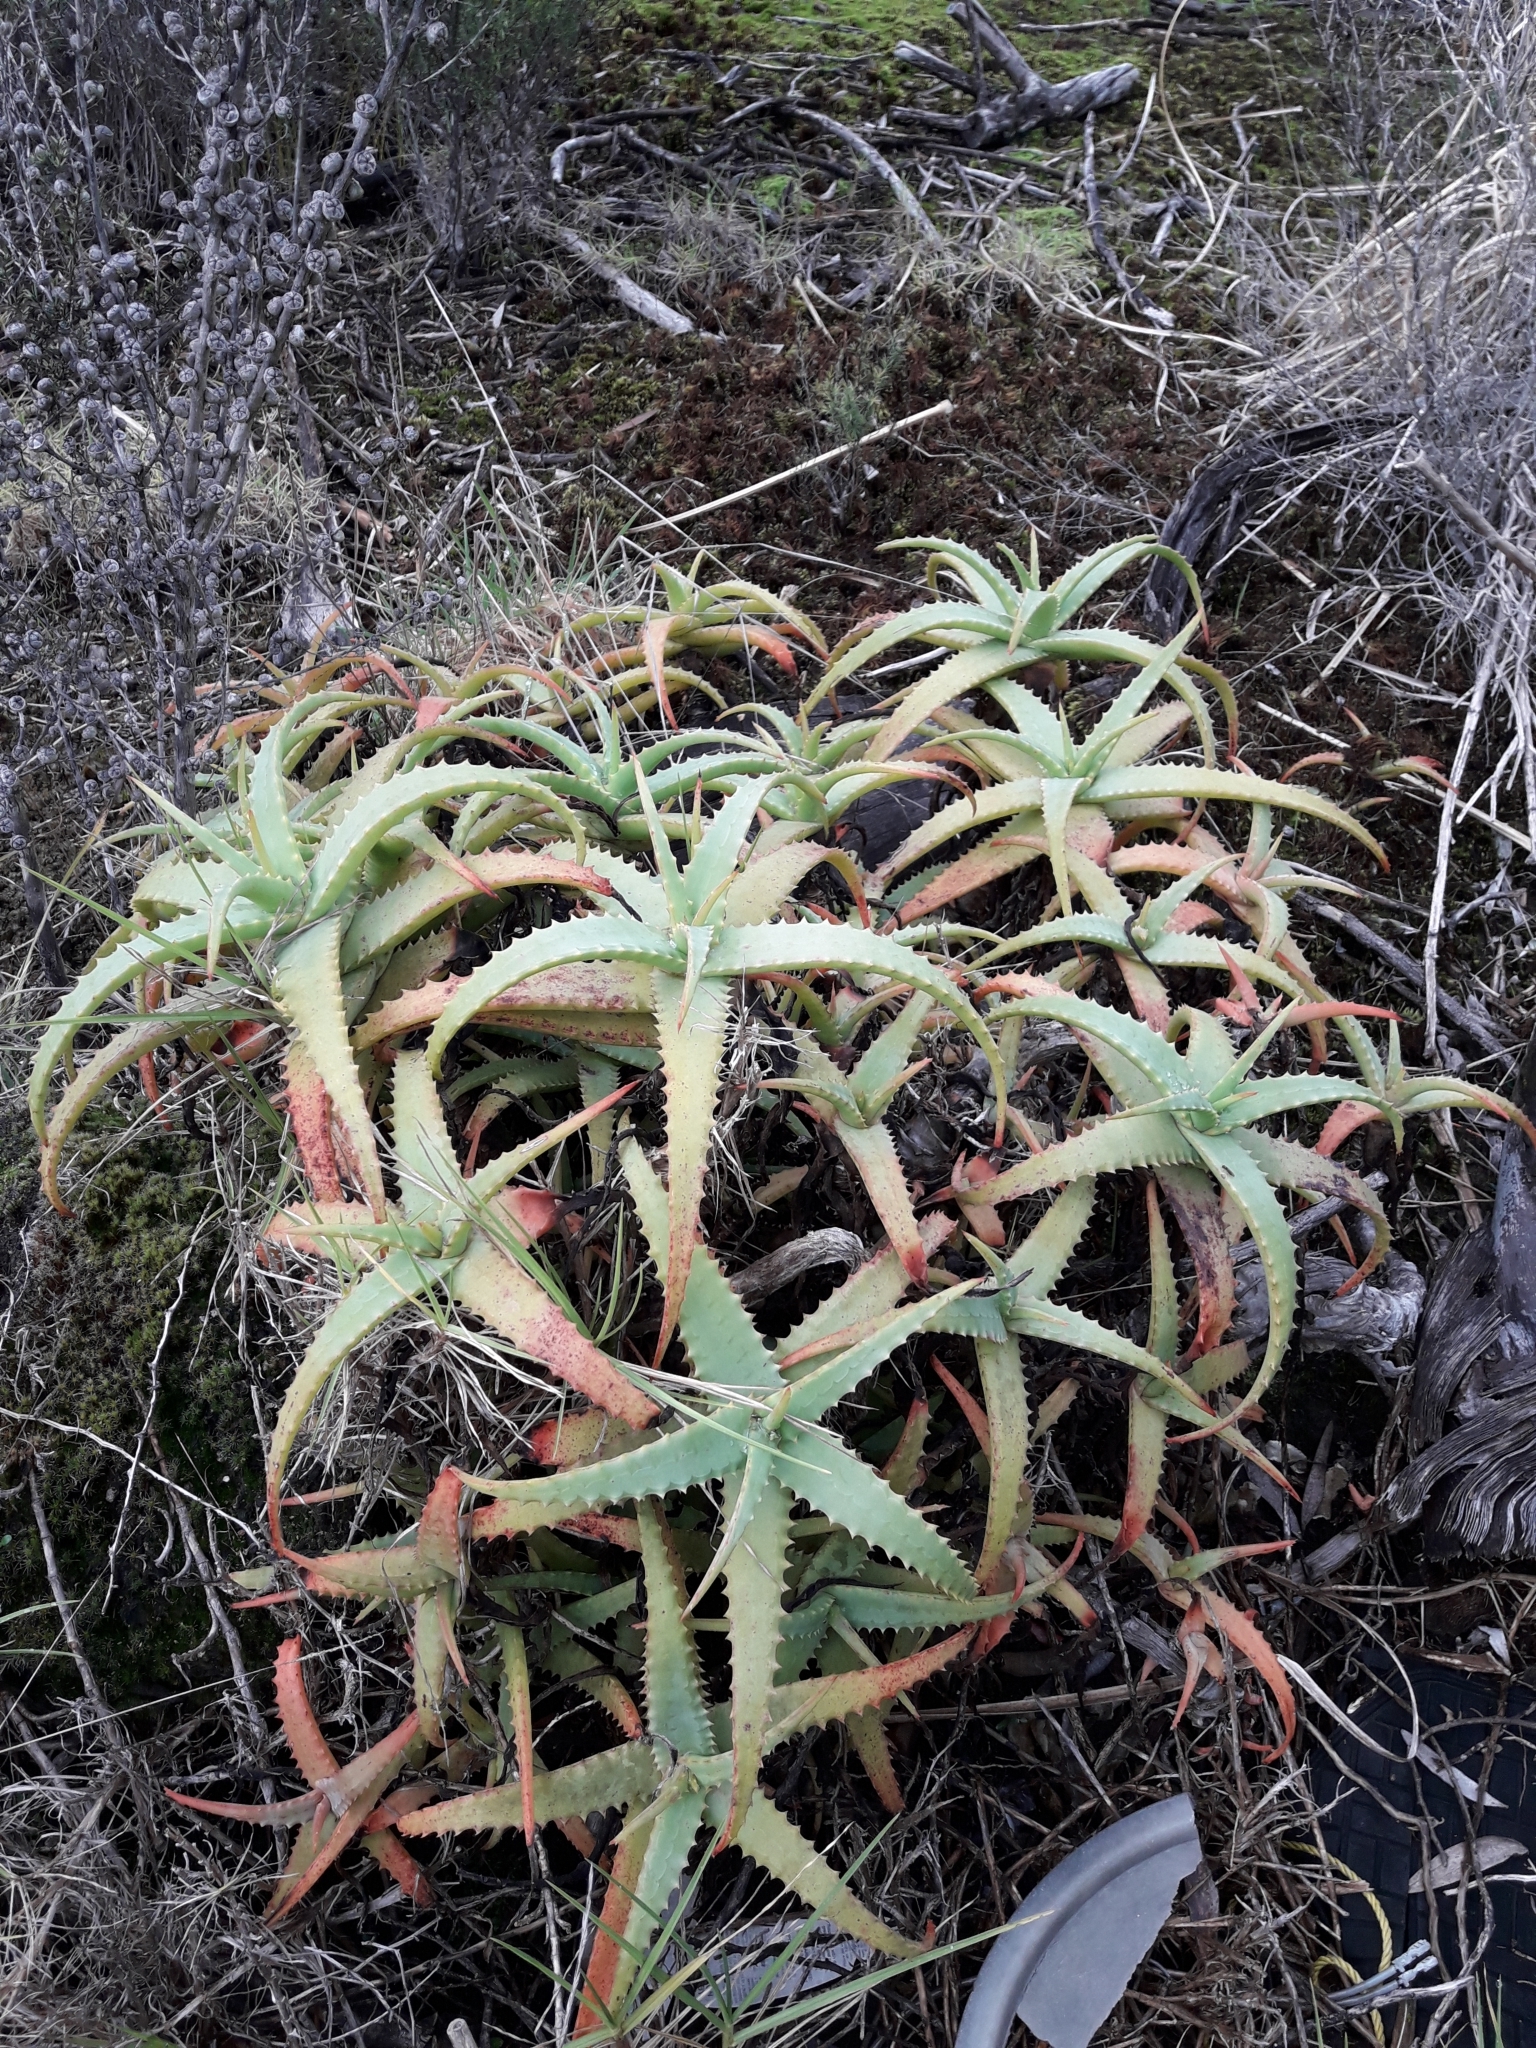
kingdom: Plantae
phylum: Tracheophyta
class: Liliopsida
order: Asparagales
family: Asphodelaceae
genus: Aloe
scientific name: Aloe arborescens
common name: Candelabra aloe
